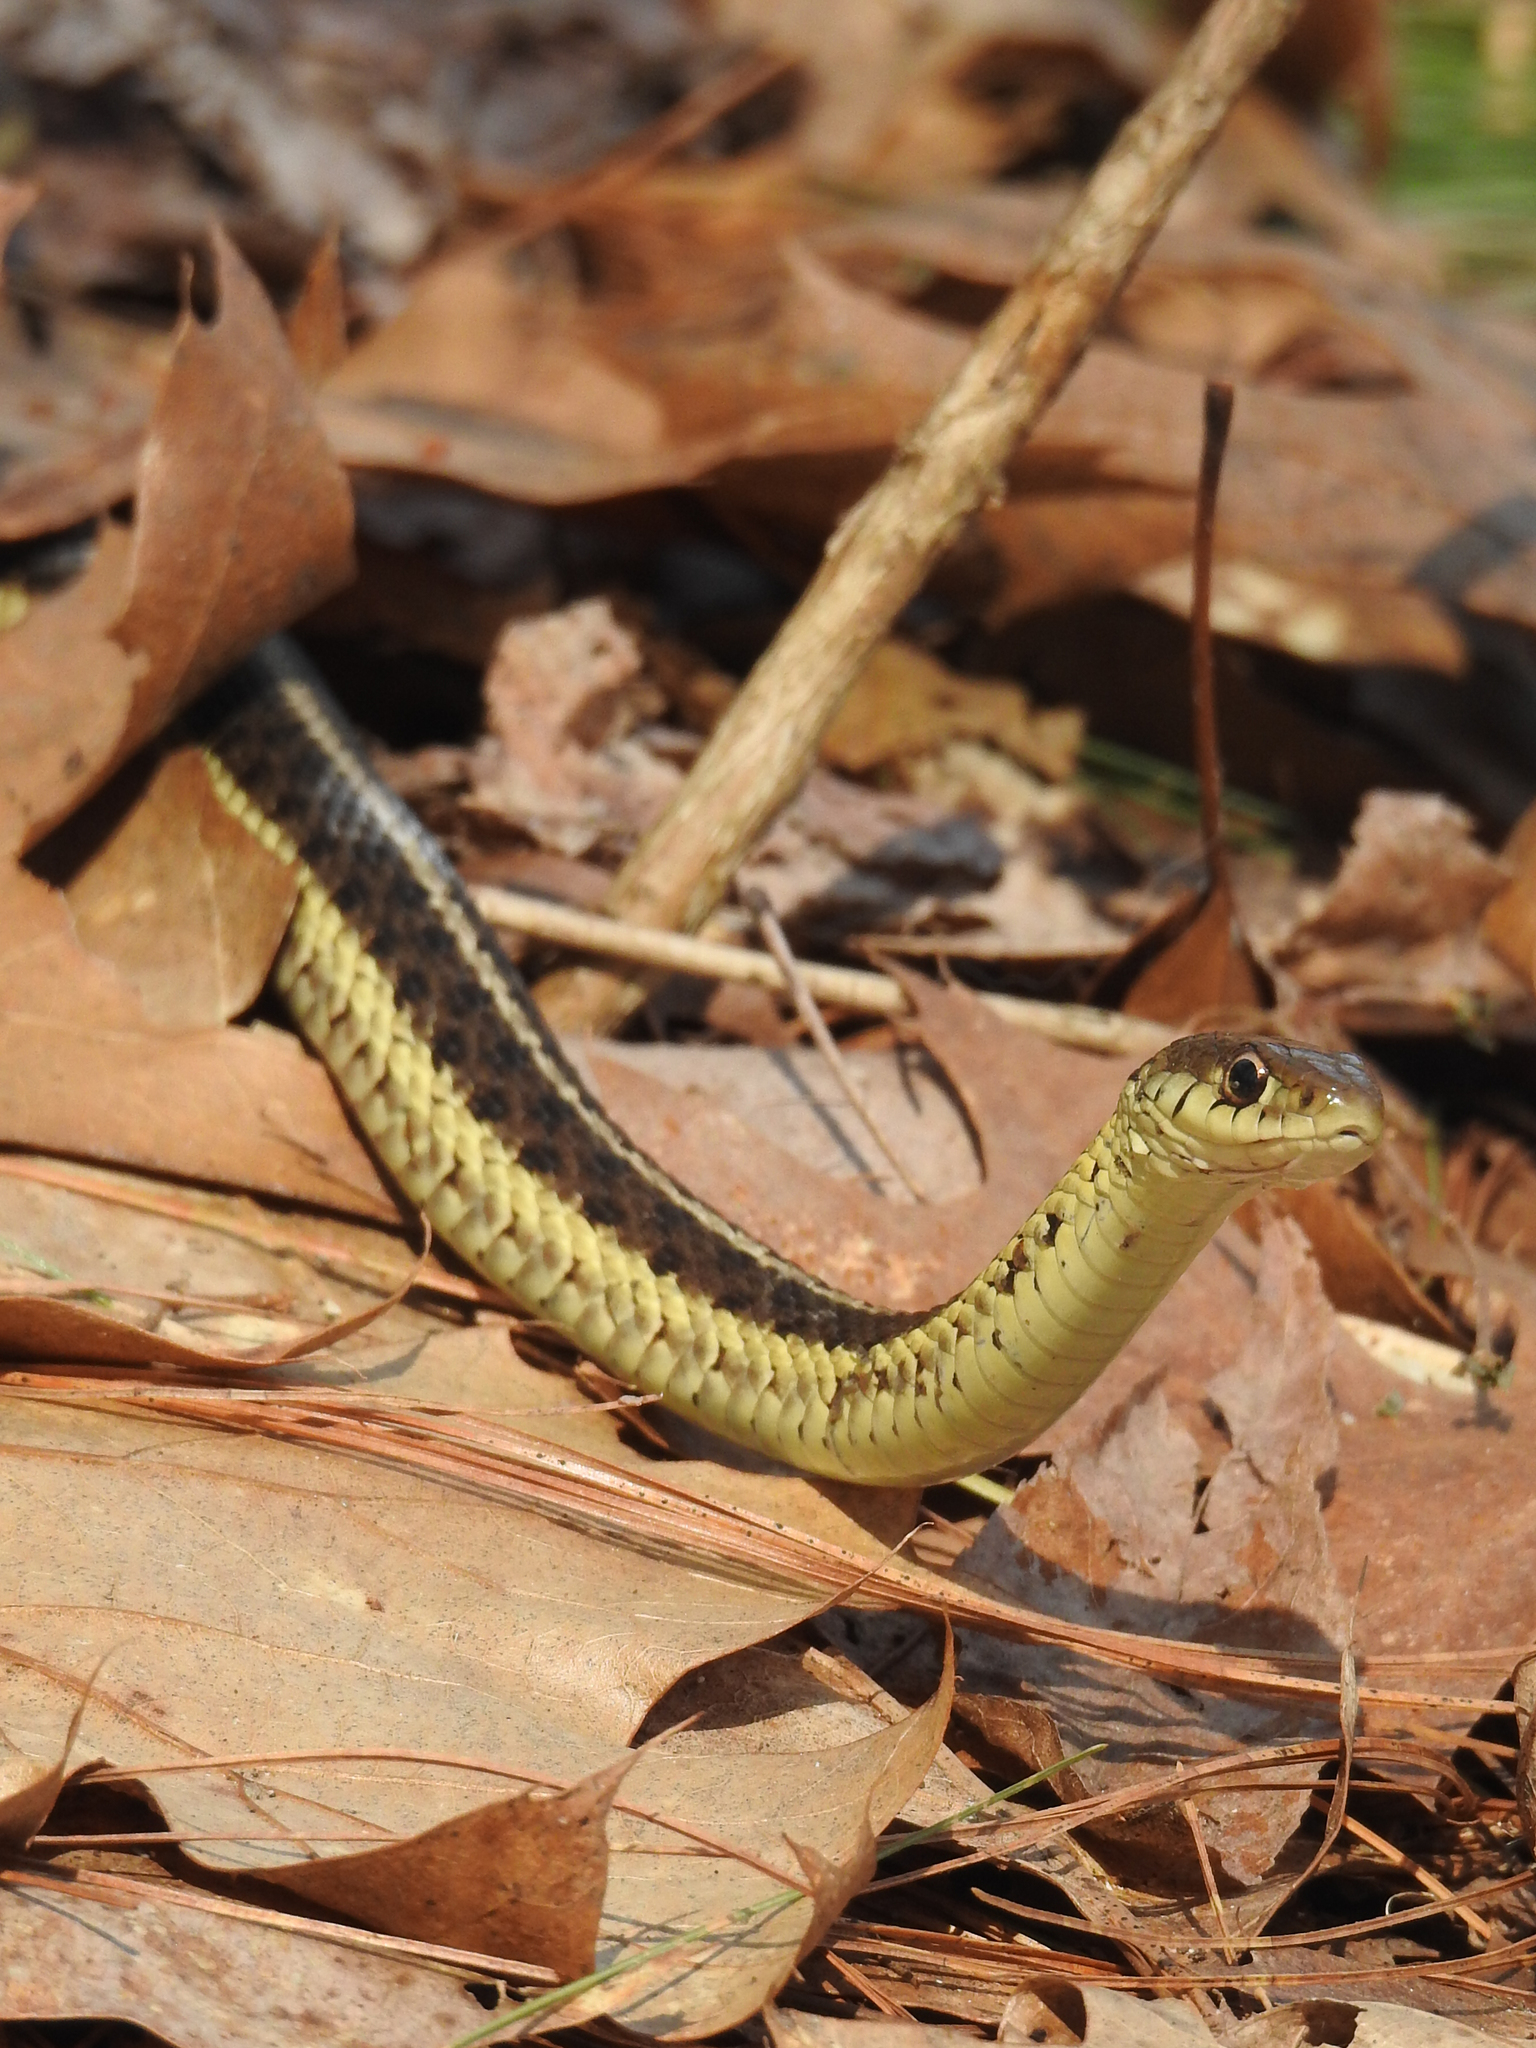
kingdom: Animalia
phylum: Chordata
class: Squamata
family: Colubridae
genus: Thamnophis
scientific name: Thamnophis sirtalis
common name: Common garter snake
